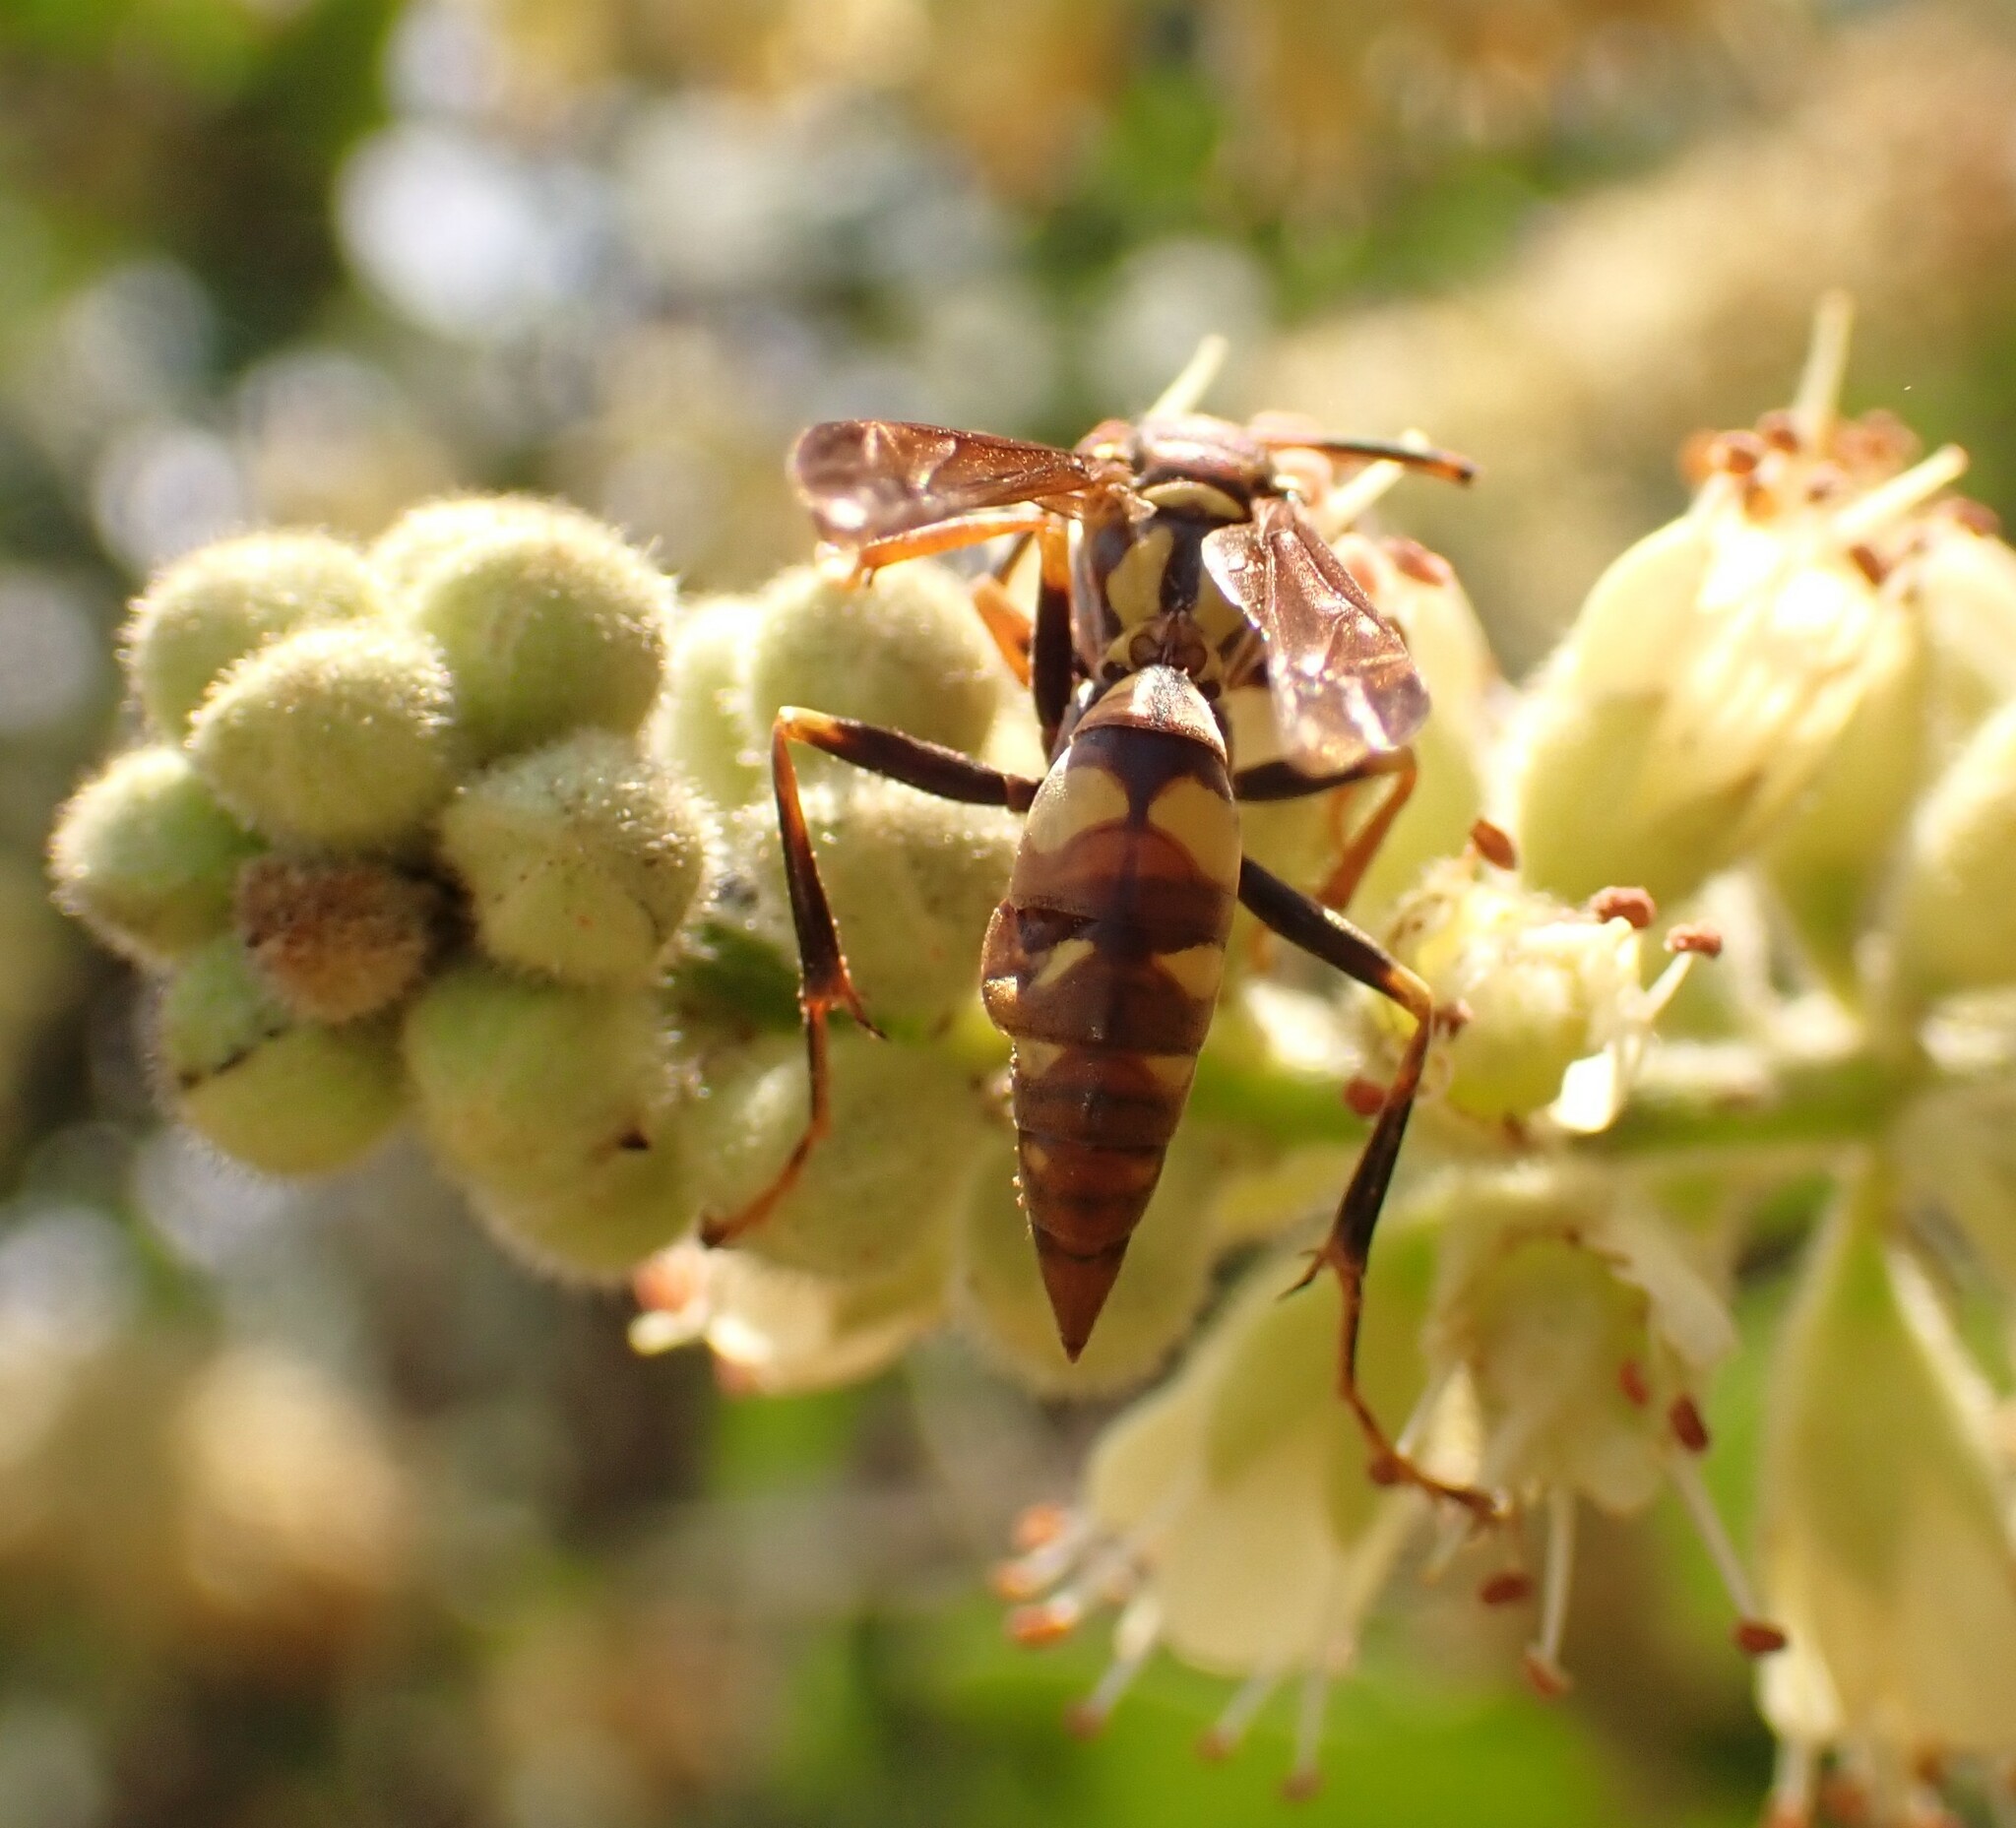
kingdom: Animalia
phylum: Arthropoda
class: Insecta
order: Hymenoptera
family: Eumenidae
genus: Polistes
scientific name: Polistes versicolor
